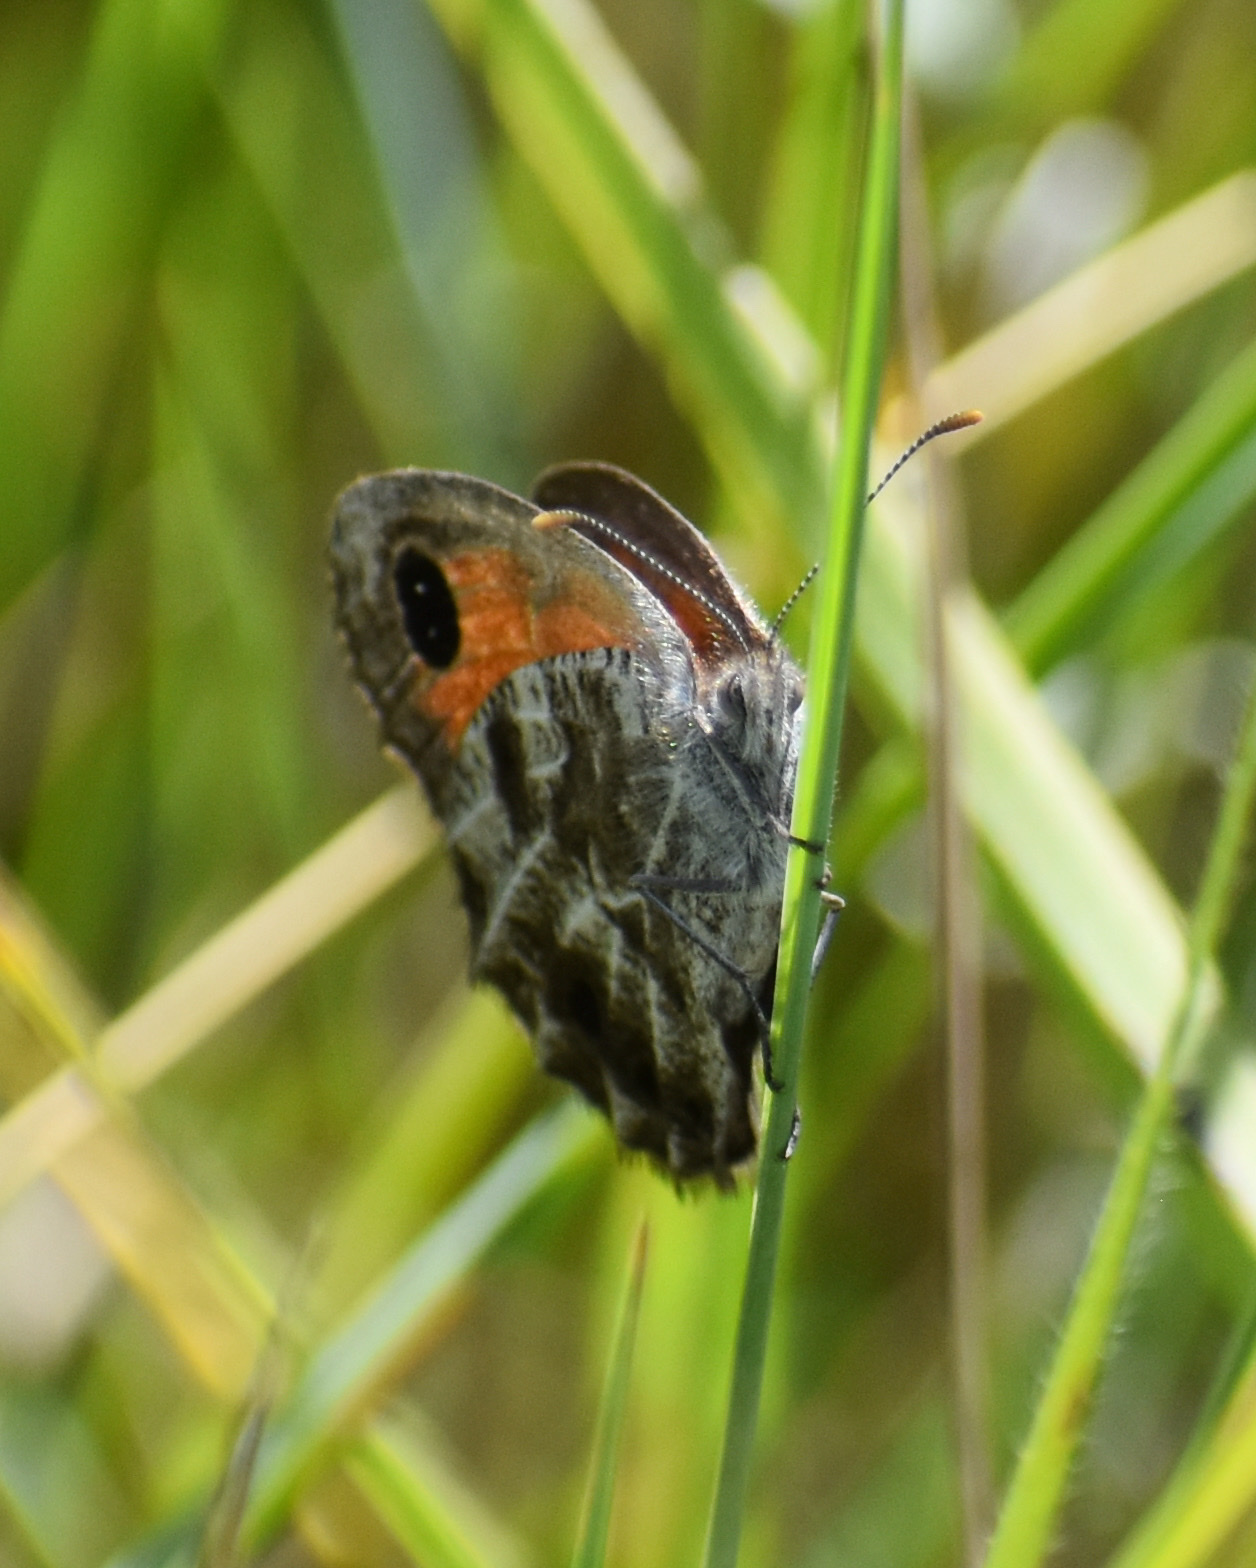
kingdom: Animalia
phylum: Arthropoda
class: Insecta
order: Lepidoptera
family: Nymphalidae
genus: Pseudonympha
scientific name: Pseudonympha magoides
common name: False silver-bottom brown
